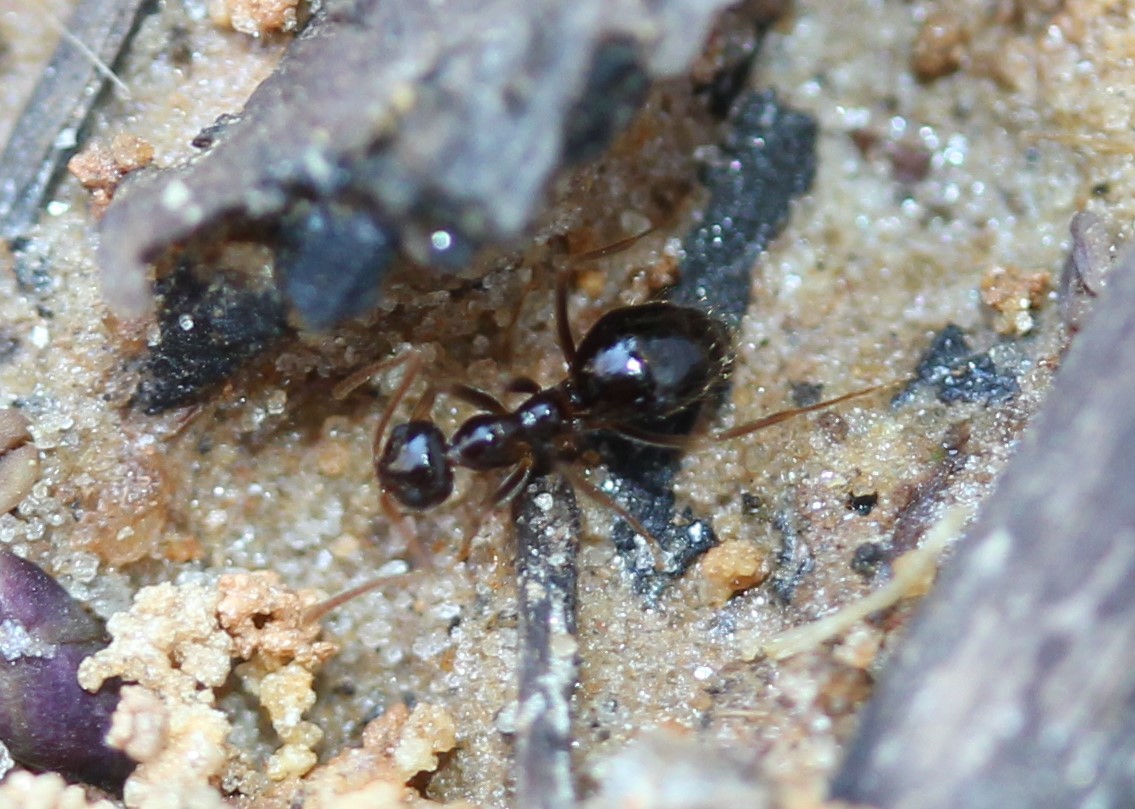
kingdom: Animalia
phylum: Arthropoda
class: Insecta
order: Hymenoptera
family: Formicidae
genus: Prenolepis
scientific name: Prenolepis imparis
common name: Small honey ant
